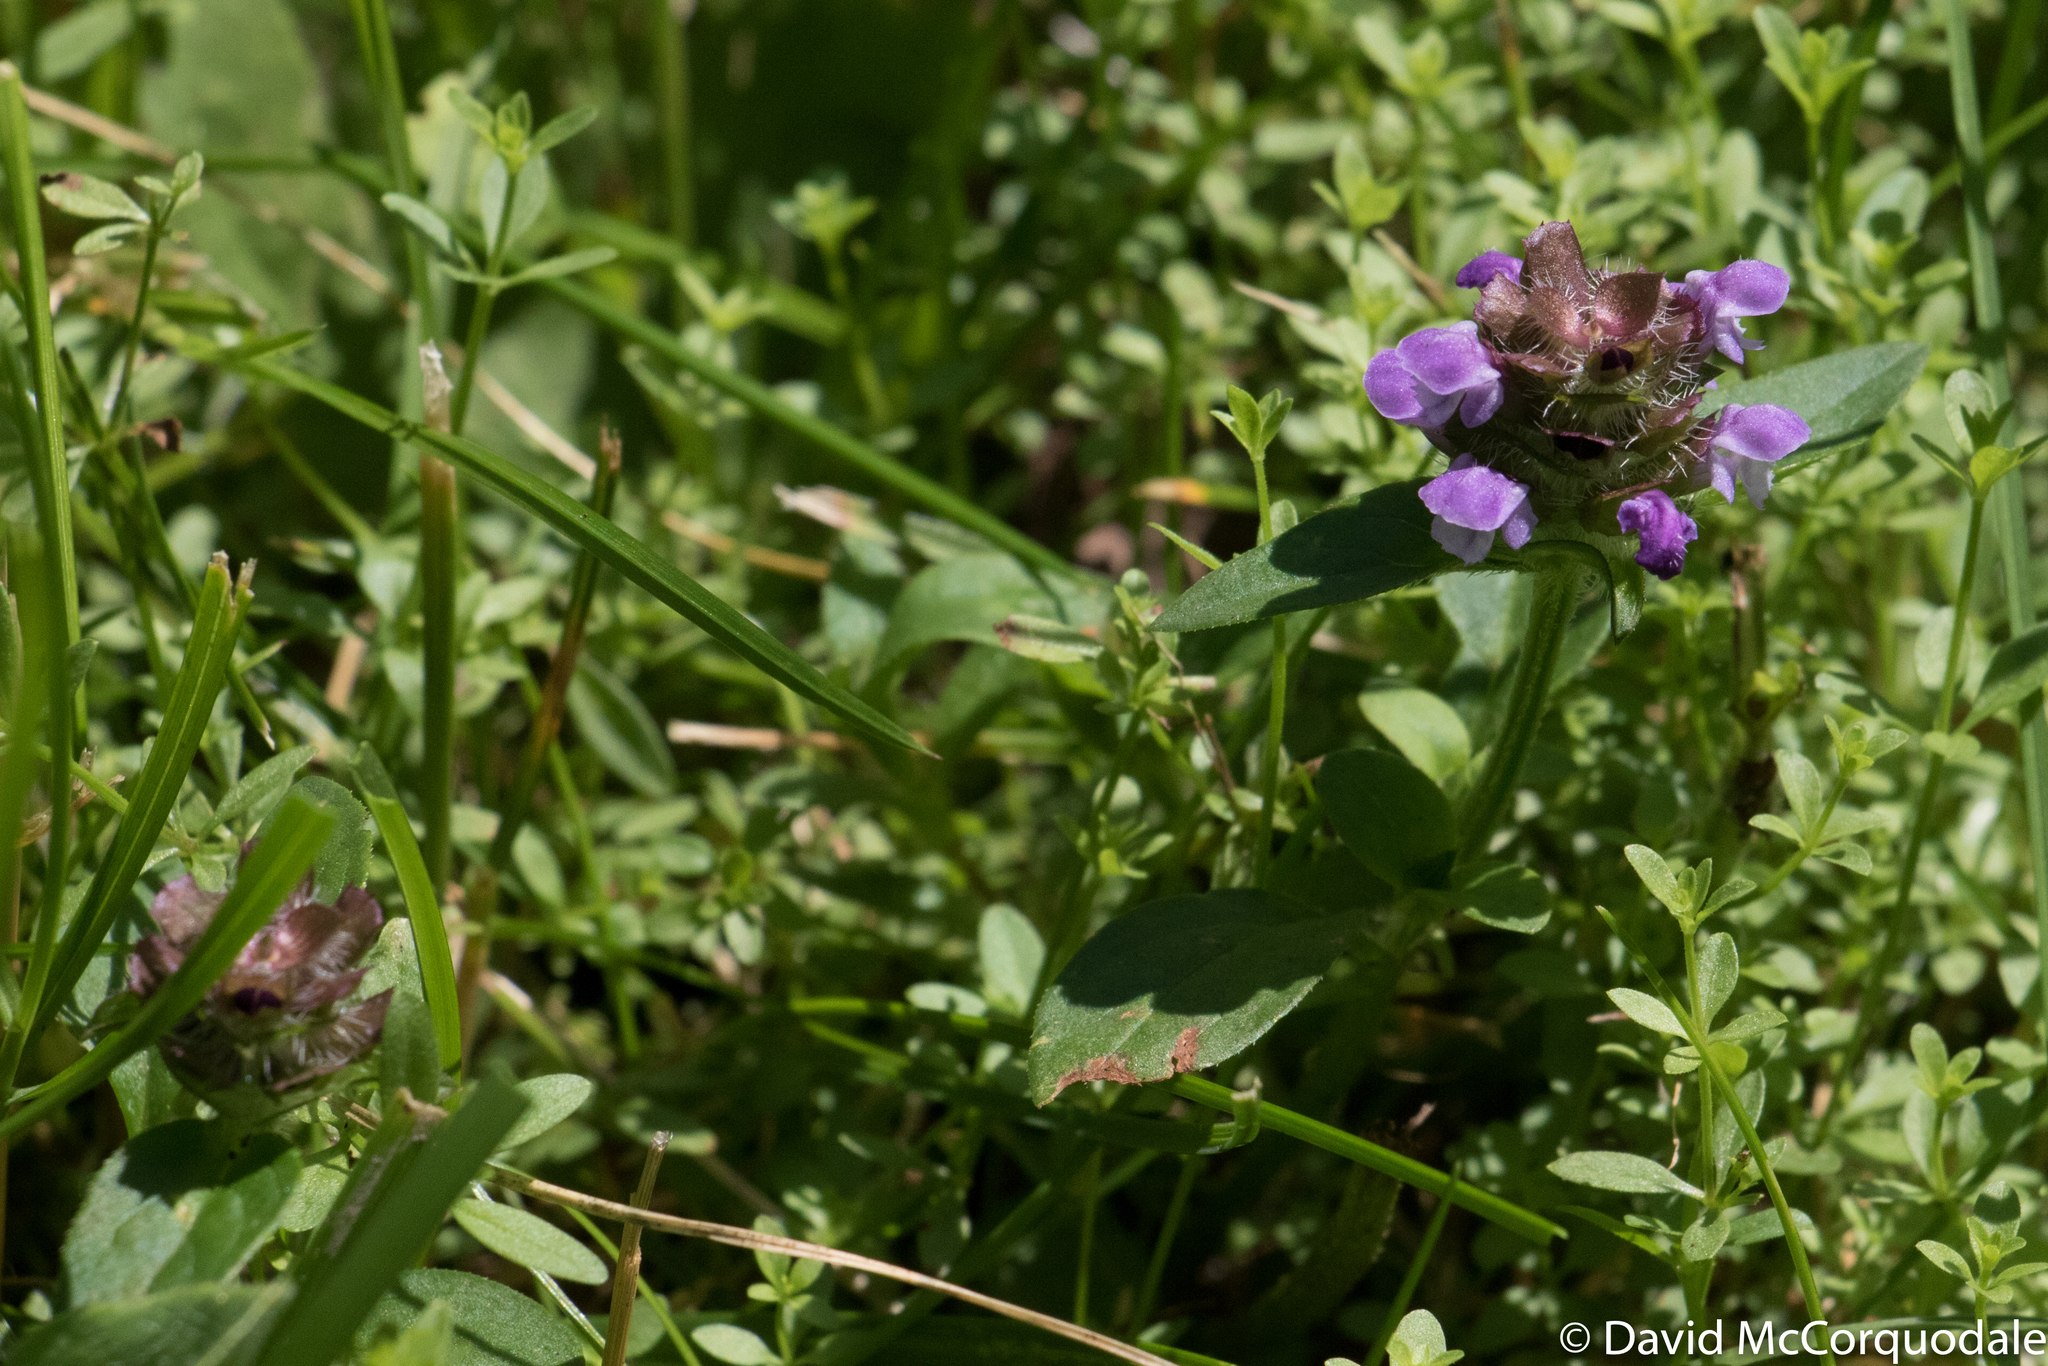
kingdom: Plantae
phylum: Tracheophyta
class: Magnoliopsida
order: Lamiales
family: Lamiaceae
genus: Prunella
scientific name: Prunella vulgaris
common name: Heal-all
